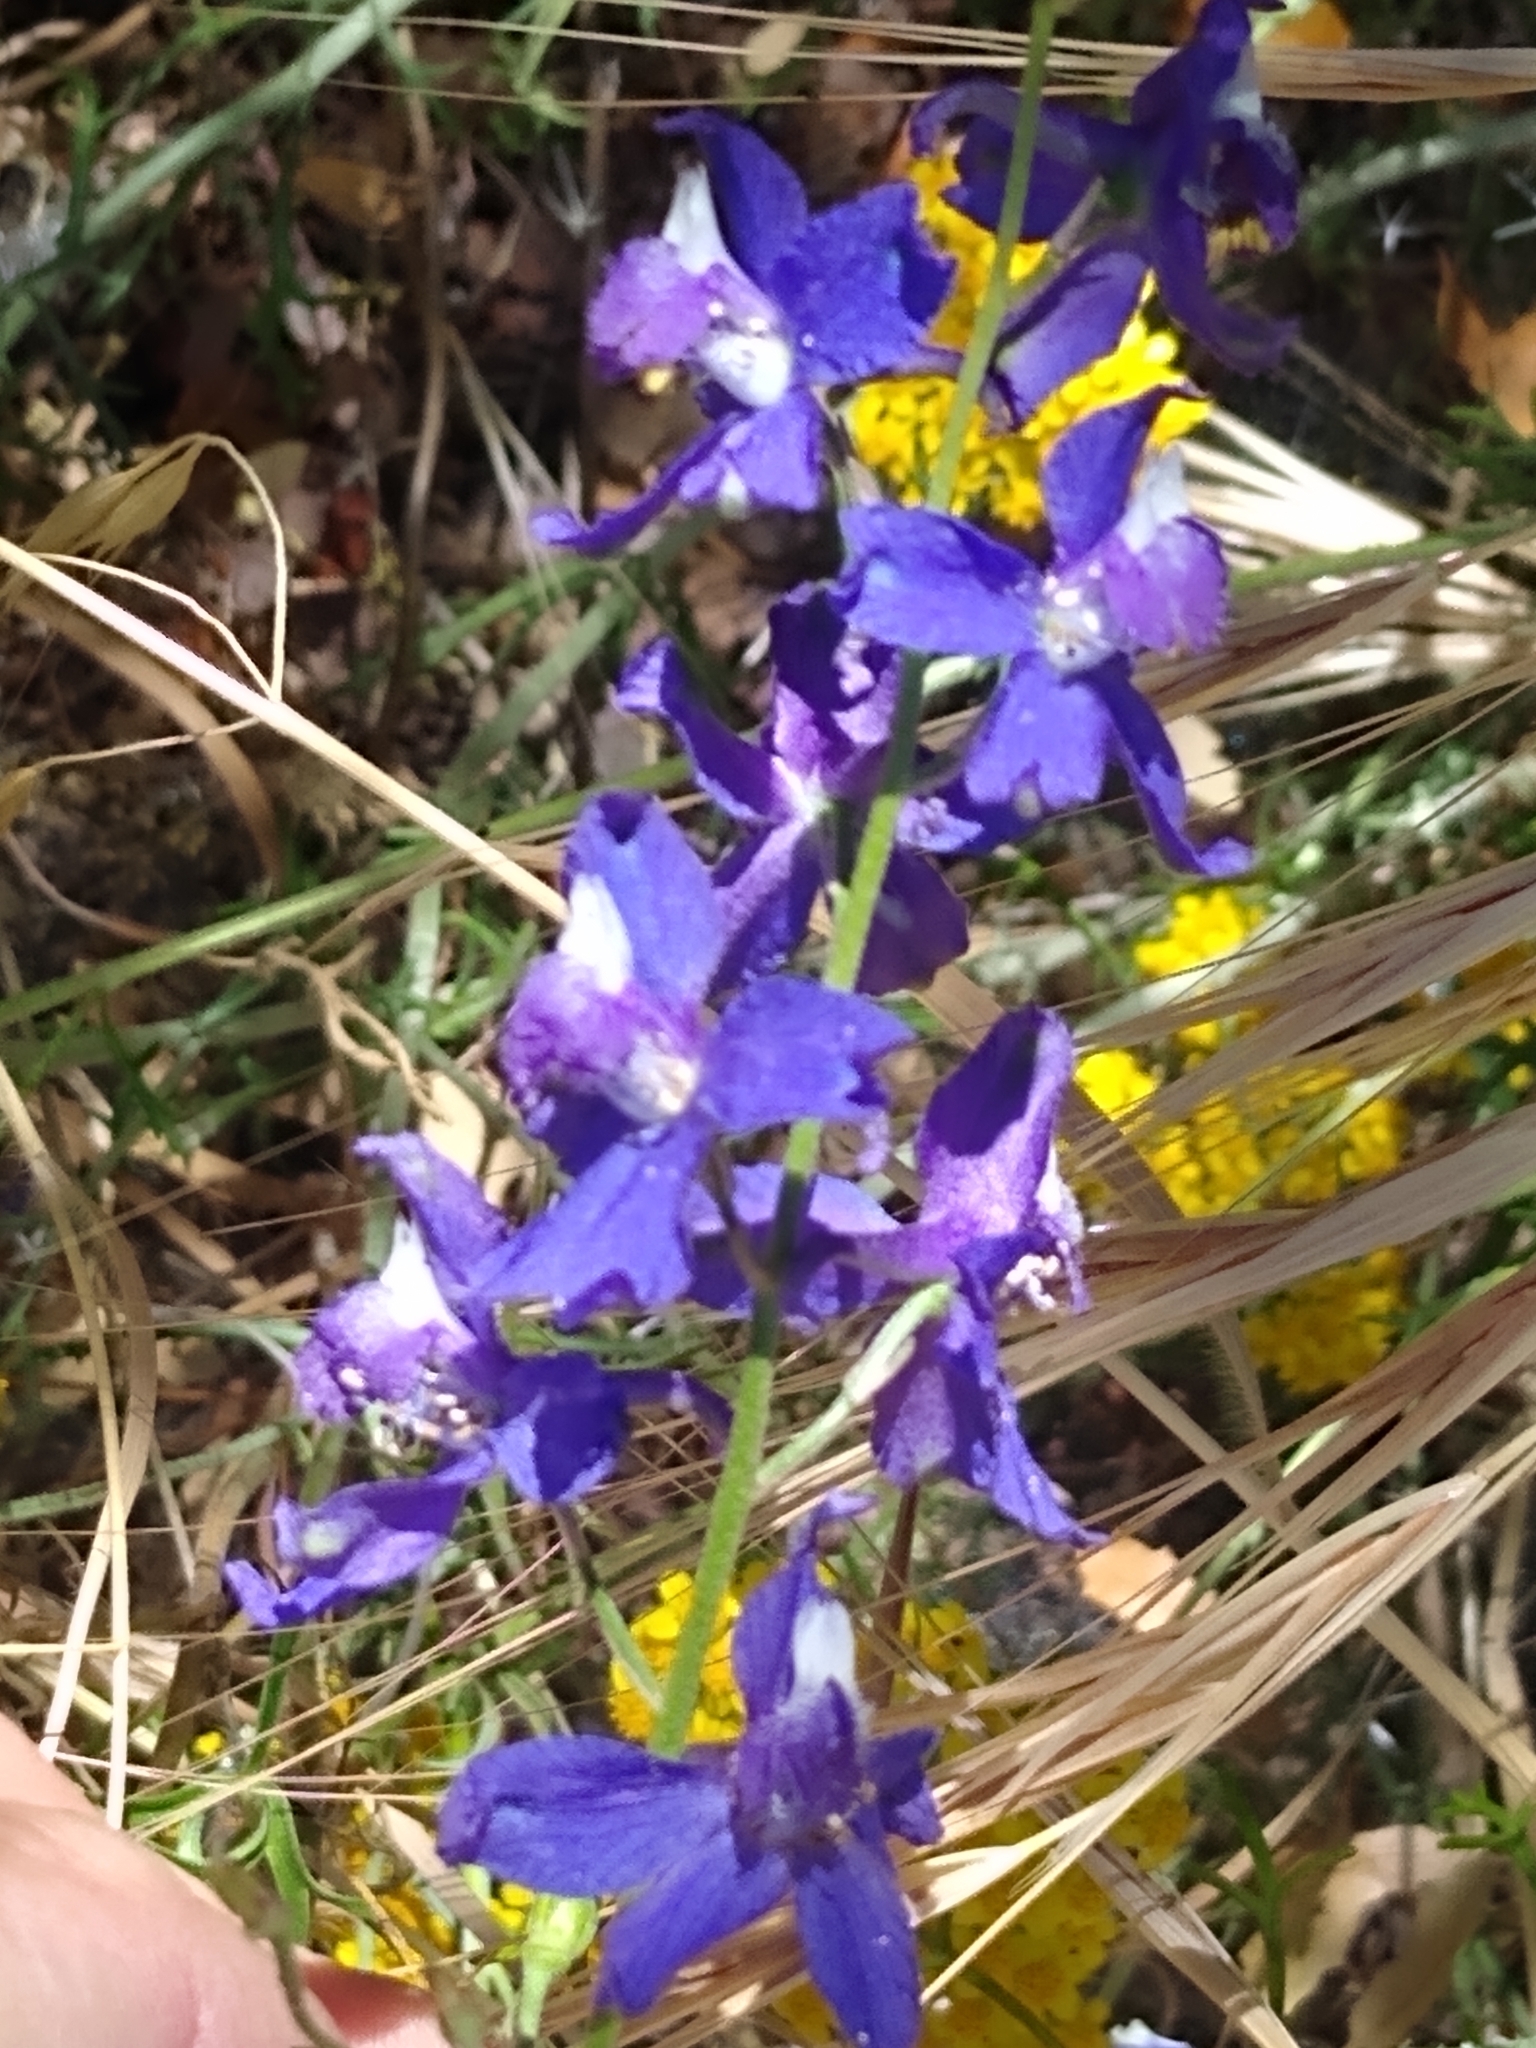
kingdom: Plantae
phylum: Tracheophyta
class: Magnoliopsida
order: Ranunculales
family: Ranunculaceae
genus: Delphinium
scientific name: Delphinium parryi
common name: Parry's larkspur
